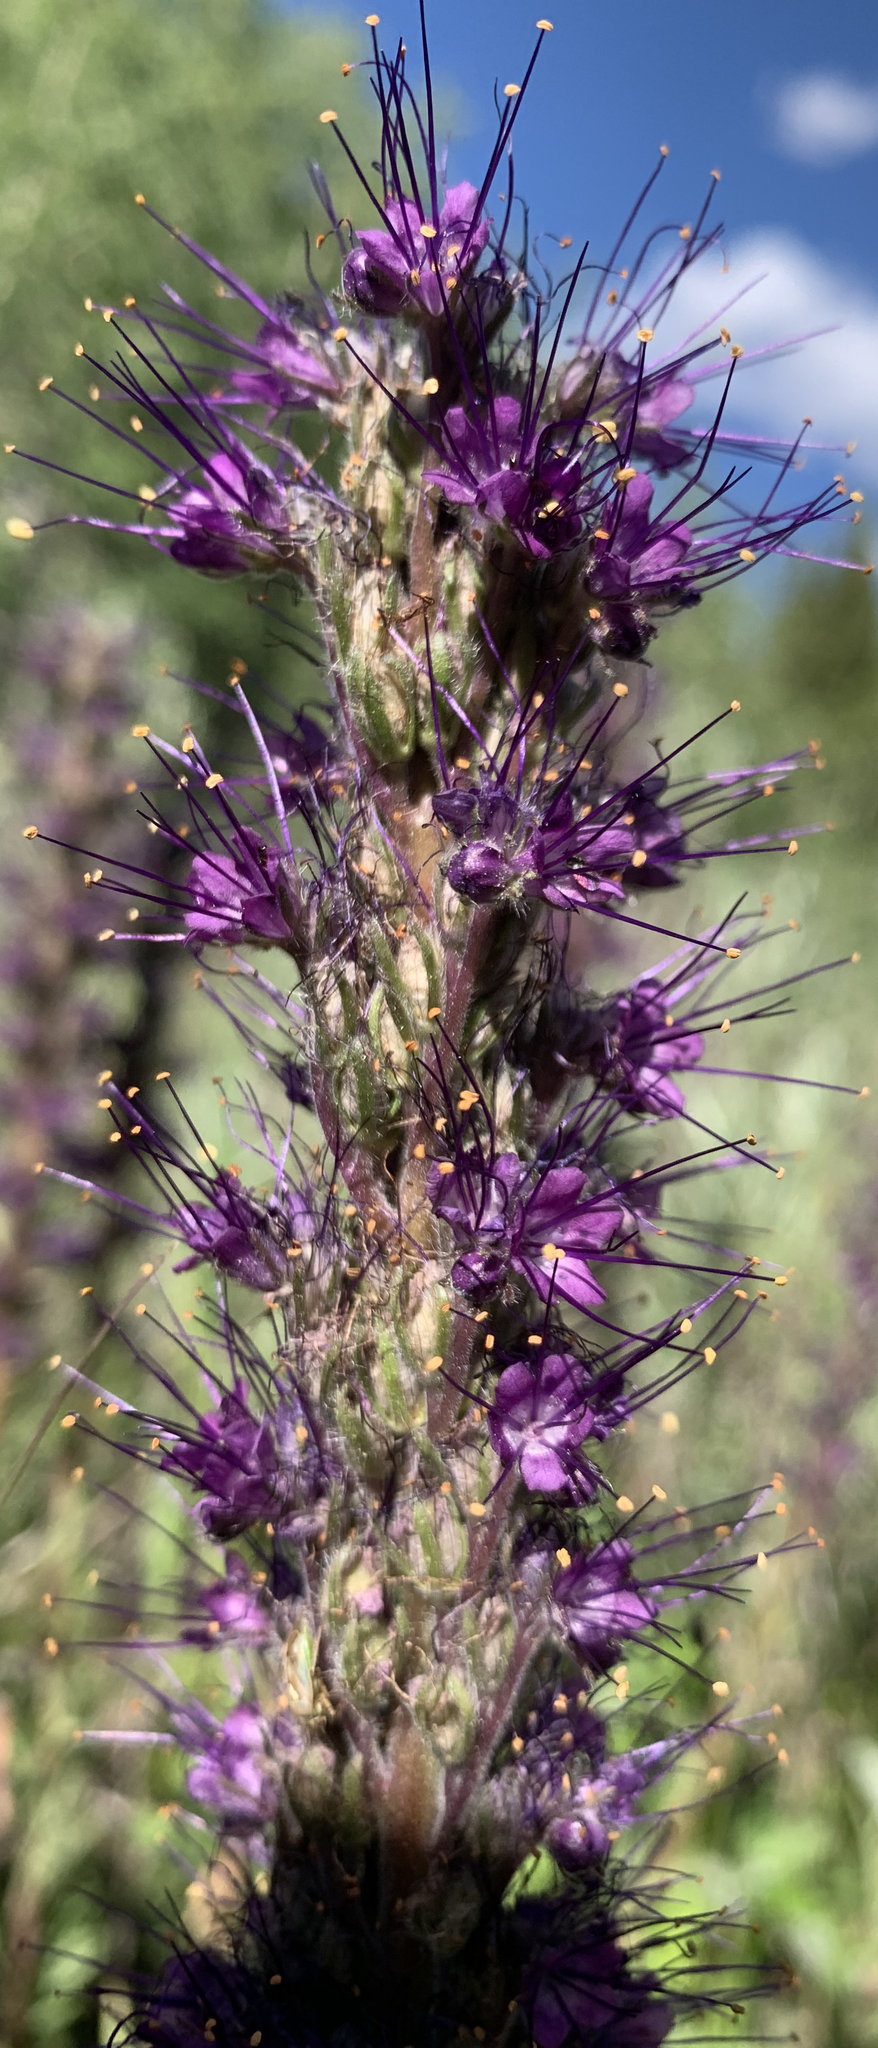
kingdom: Plantae
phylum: Tracheophyta
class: Magnoliopsida
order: Boraginales
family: Hydrophyllaceae
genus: Phacelia
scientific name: Phacelia sericea
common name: Silky phacelia
